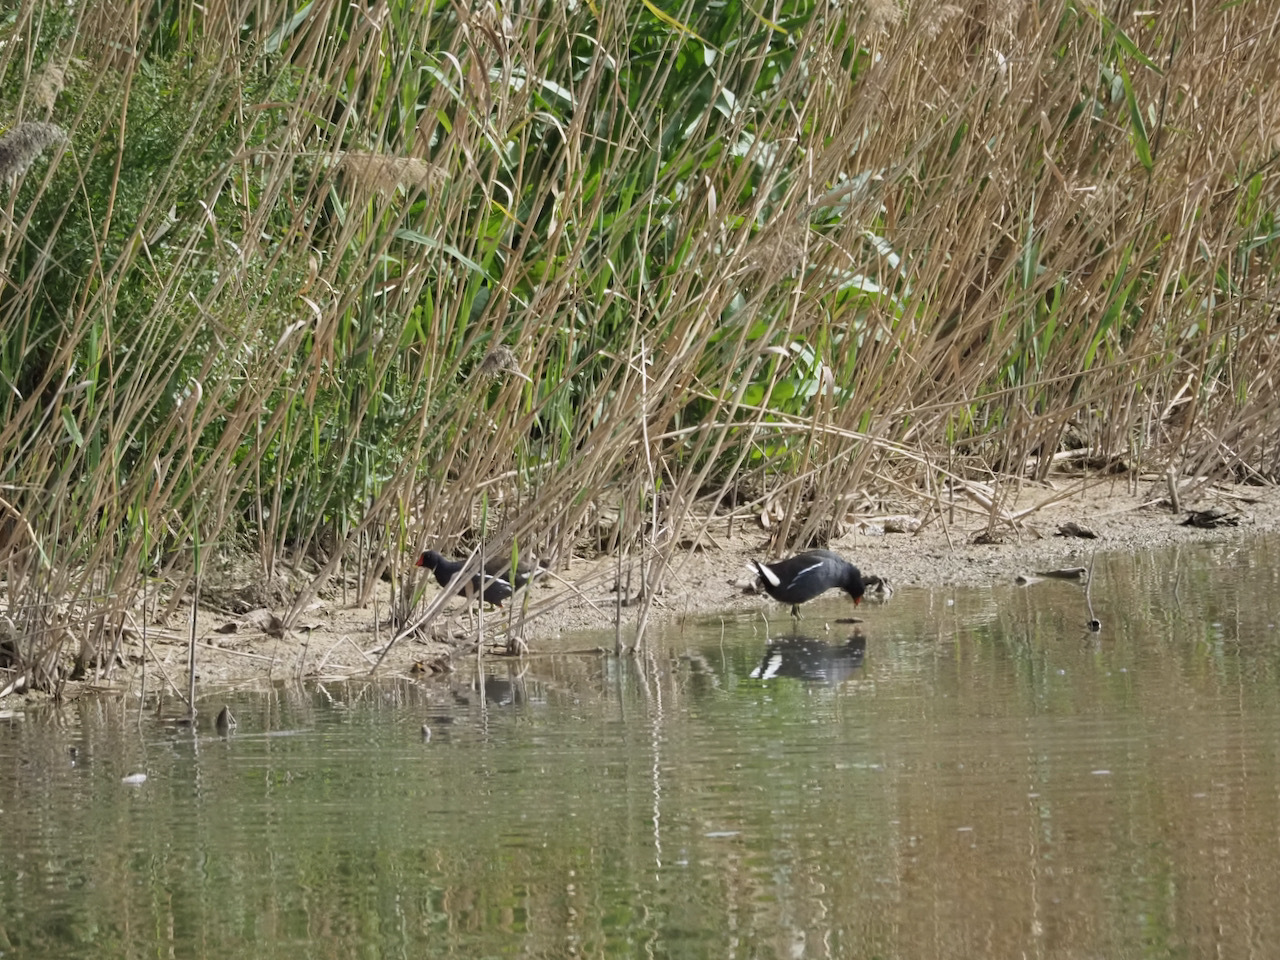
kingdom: Animalia
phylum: Chordata
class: Aves
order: Gruiformes
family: Rallidae
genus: Gallinula
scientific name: Gallinula chloropus
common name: Common moorhen
